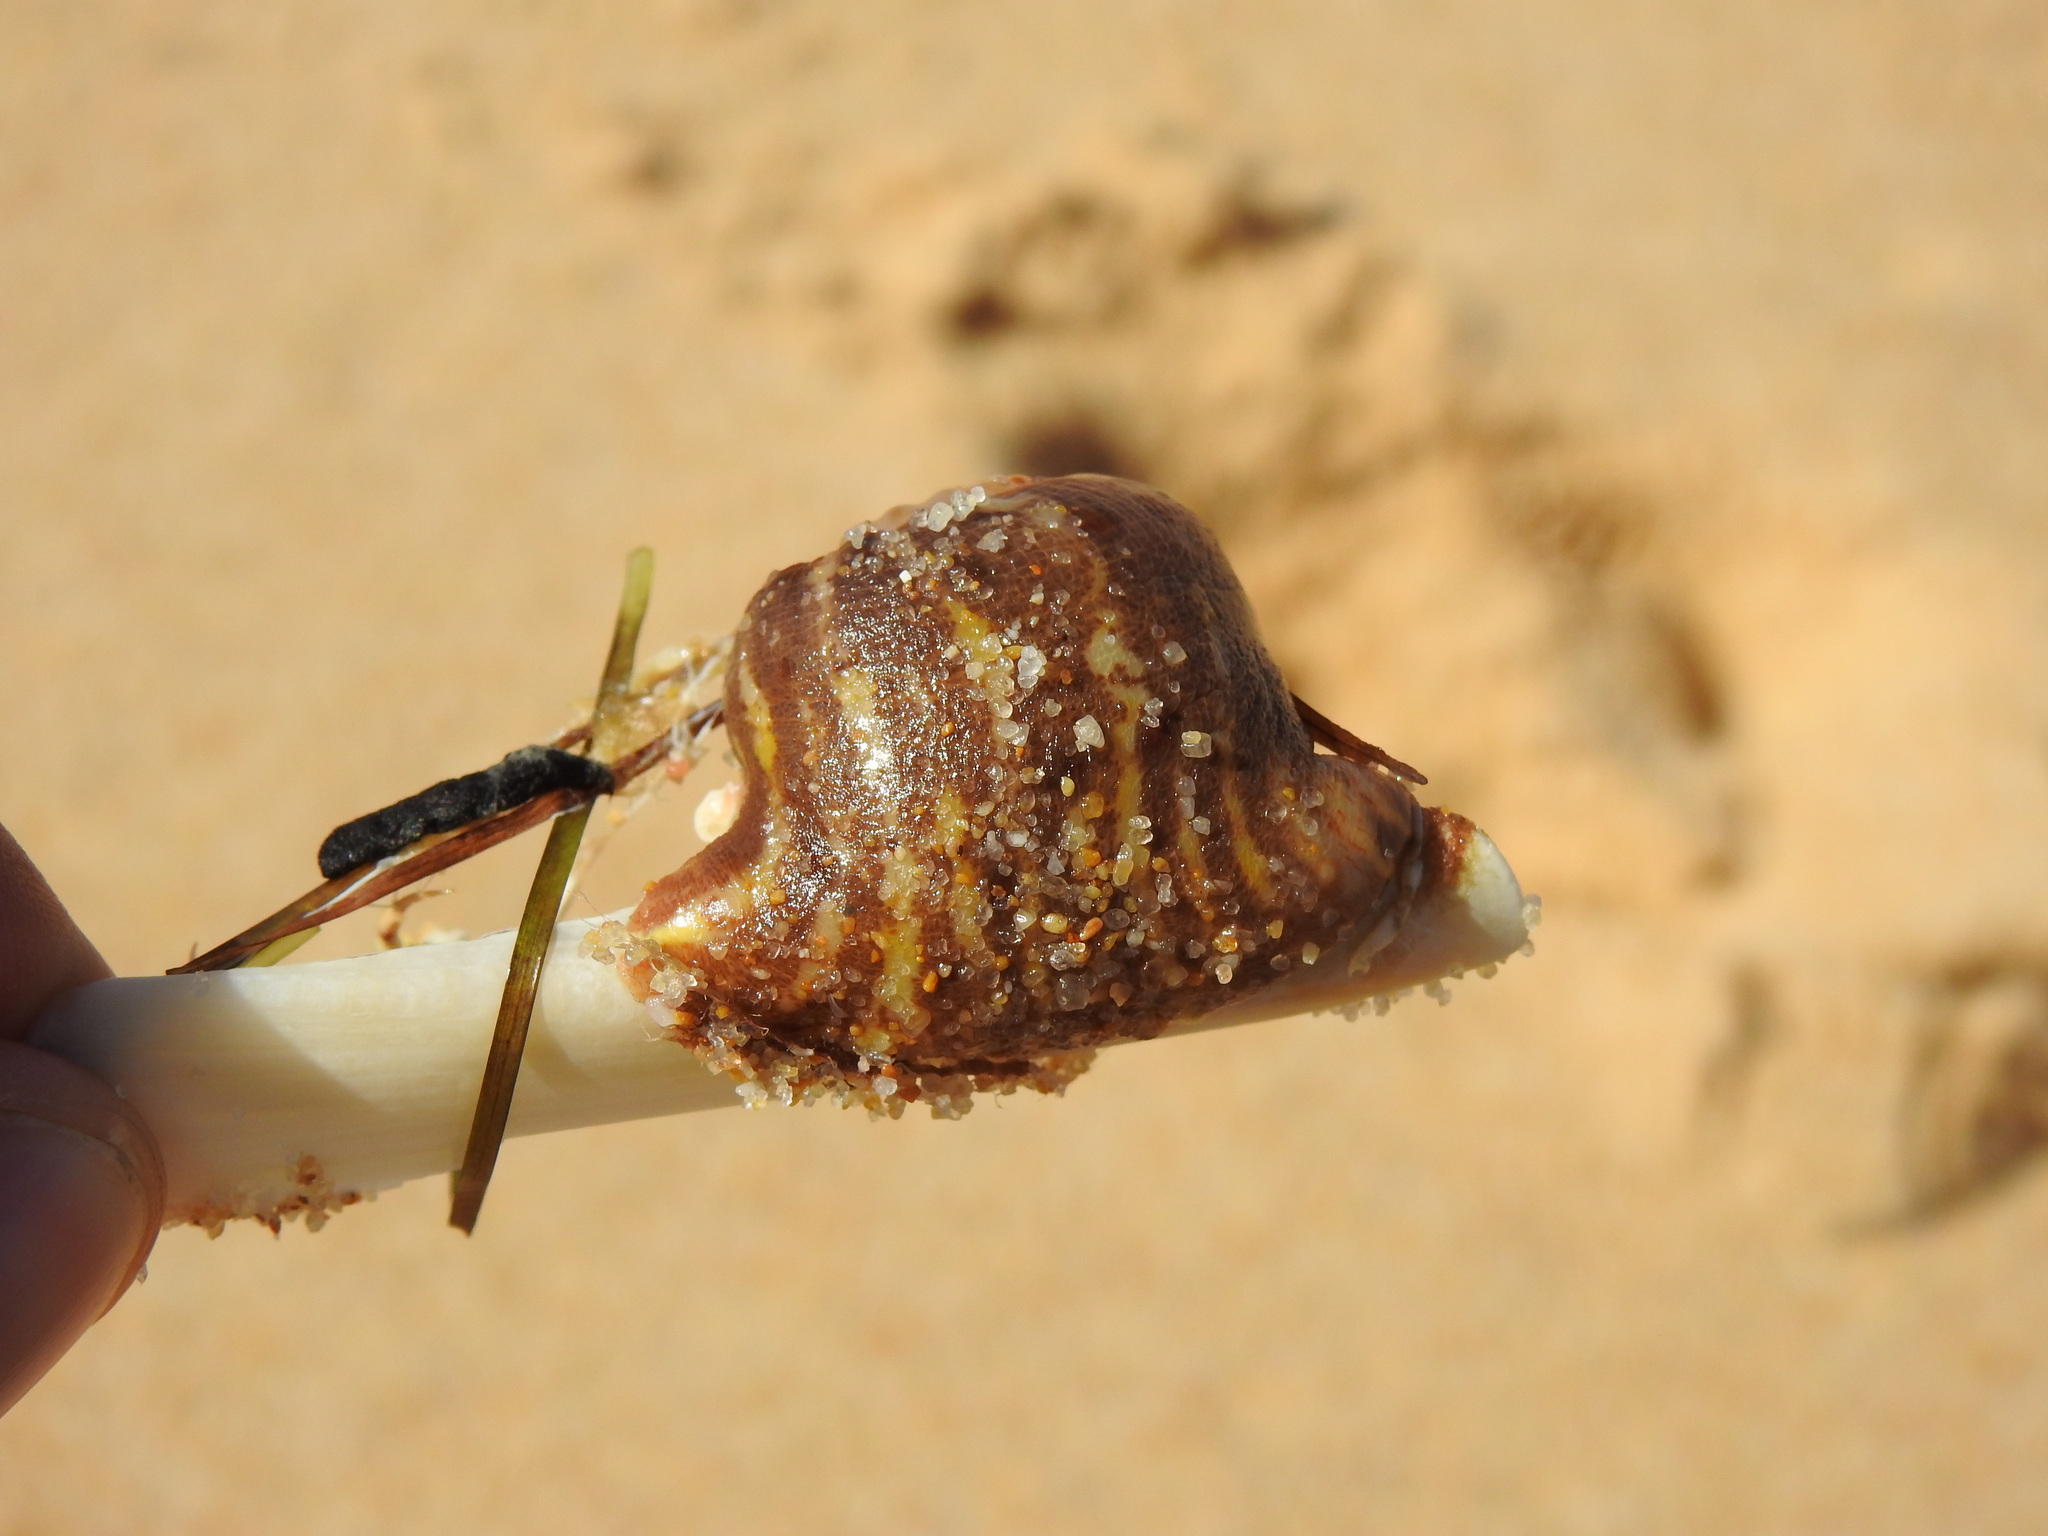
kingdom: Animalia
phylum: Cnidaria
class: Anthozoa
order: Actiniaria
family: Hormathiidae
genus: Calliactis
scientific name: Calliactis parasitica
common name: Parasitic anemone
